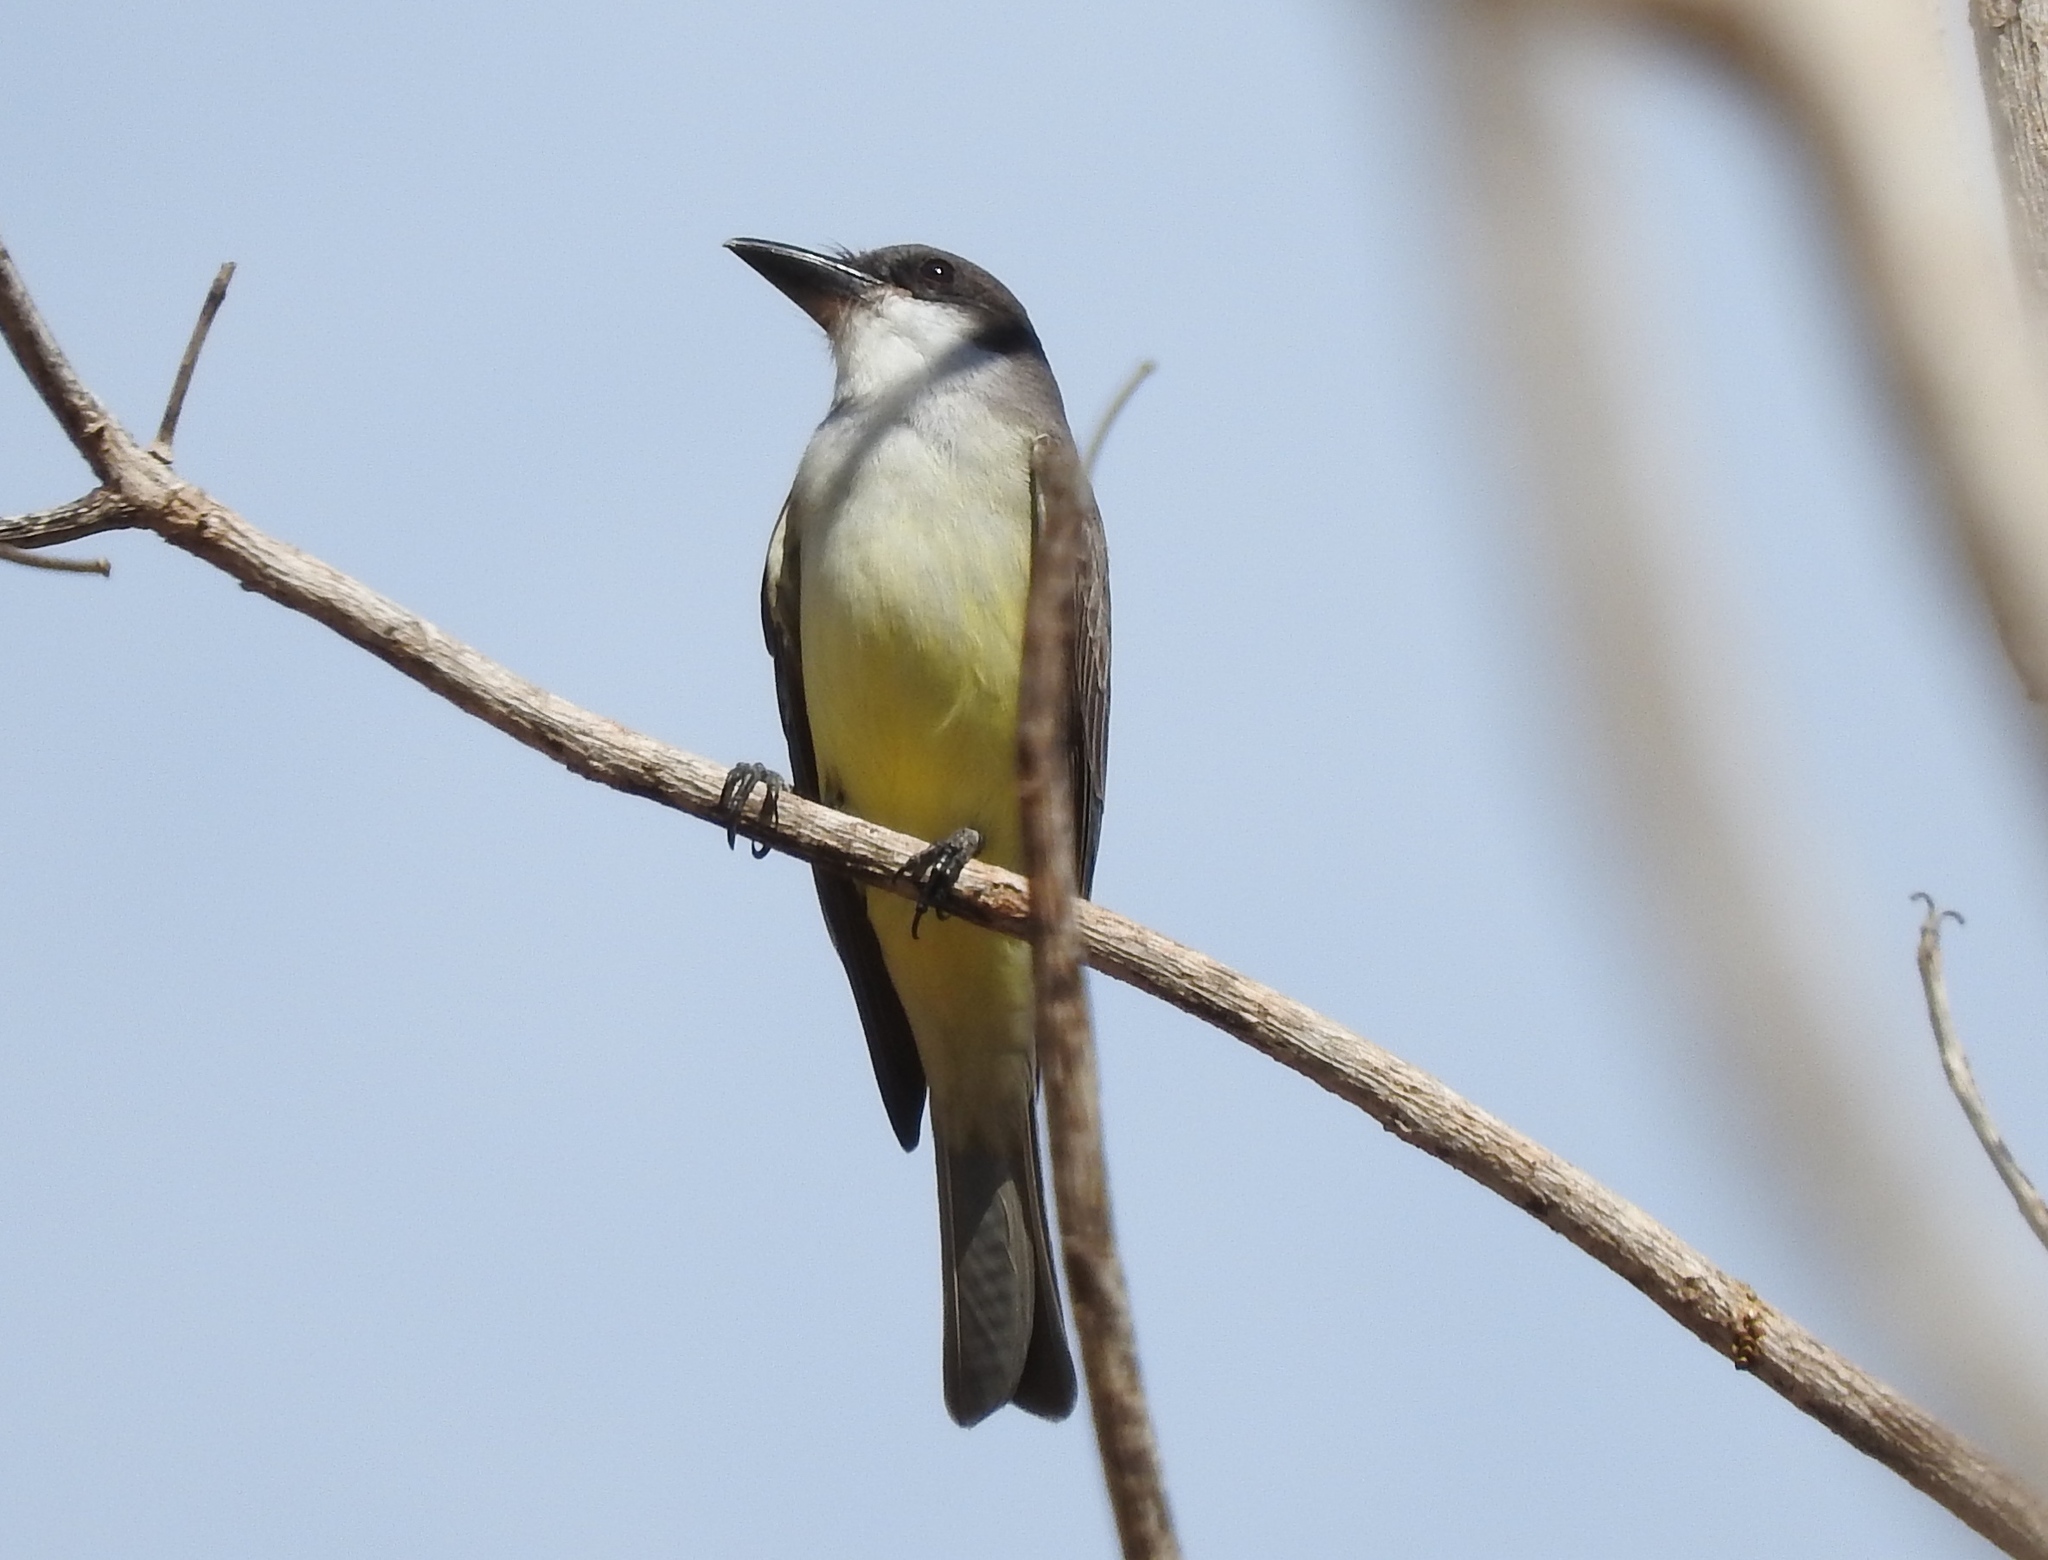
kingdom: Animalia
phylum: Chordata
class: Aves
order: Passeriformes
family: Tyrannidae
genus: Tyrannus
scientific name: Tyrannus crassirostris
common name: Thick-billed kingbird
